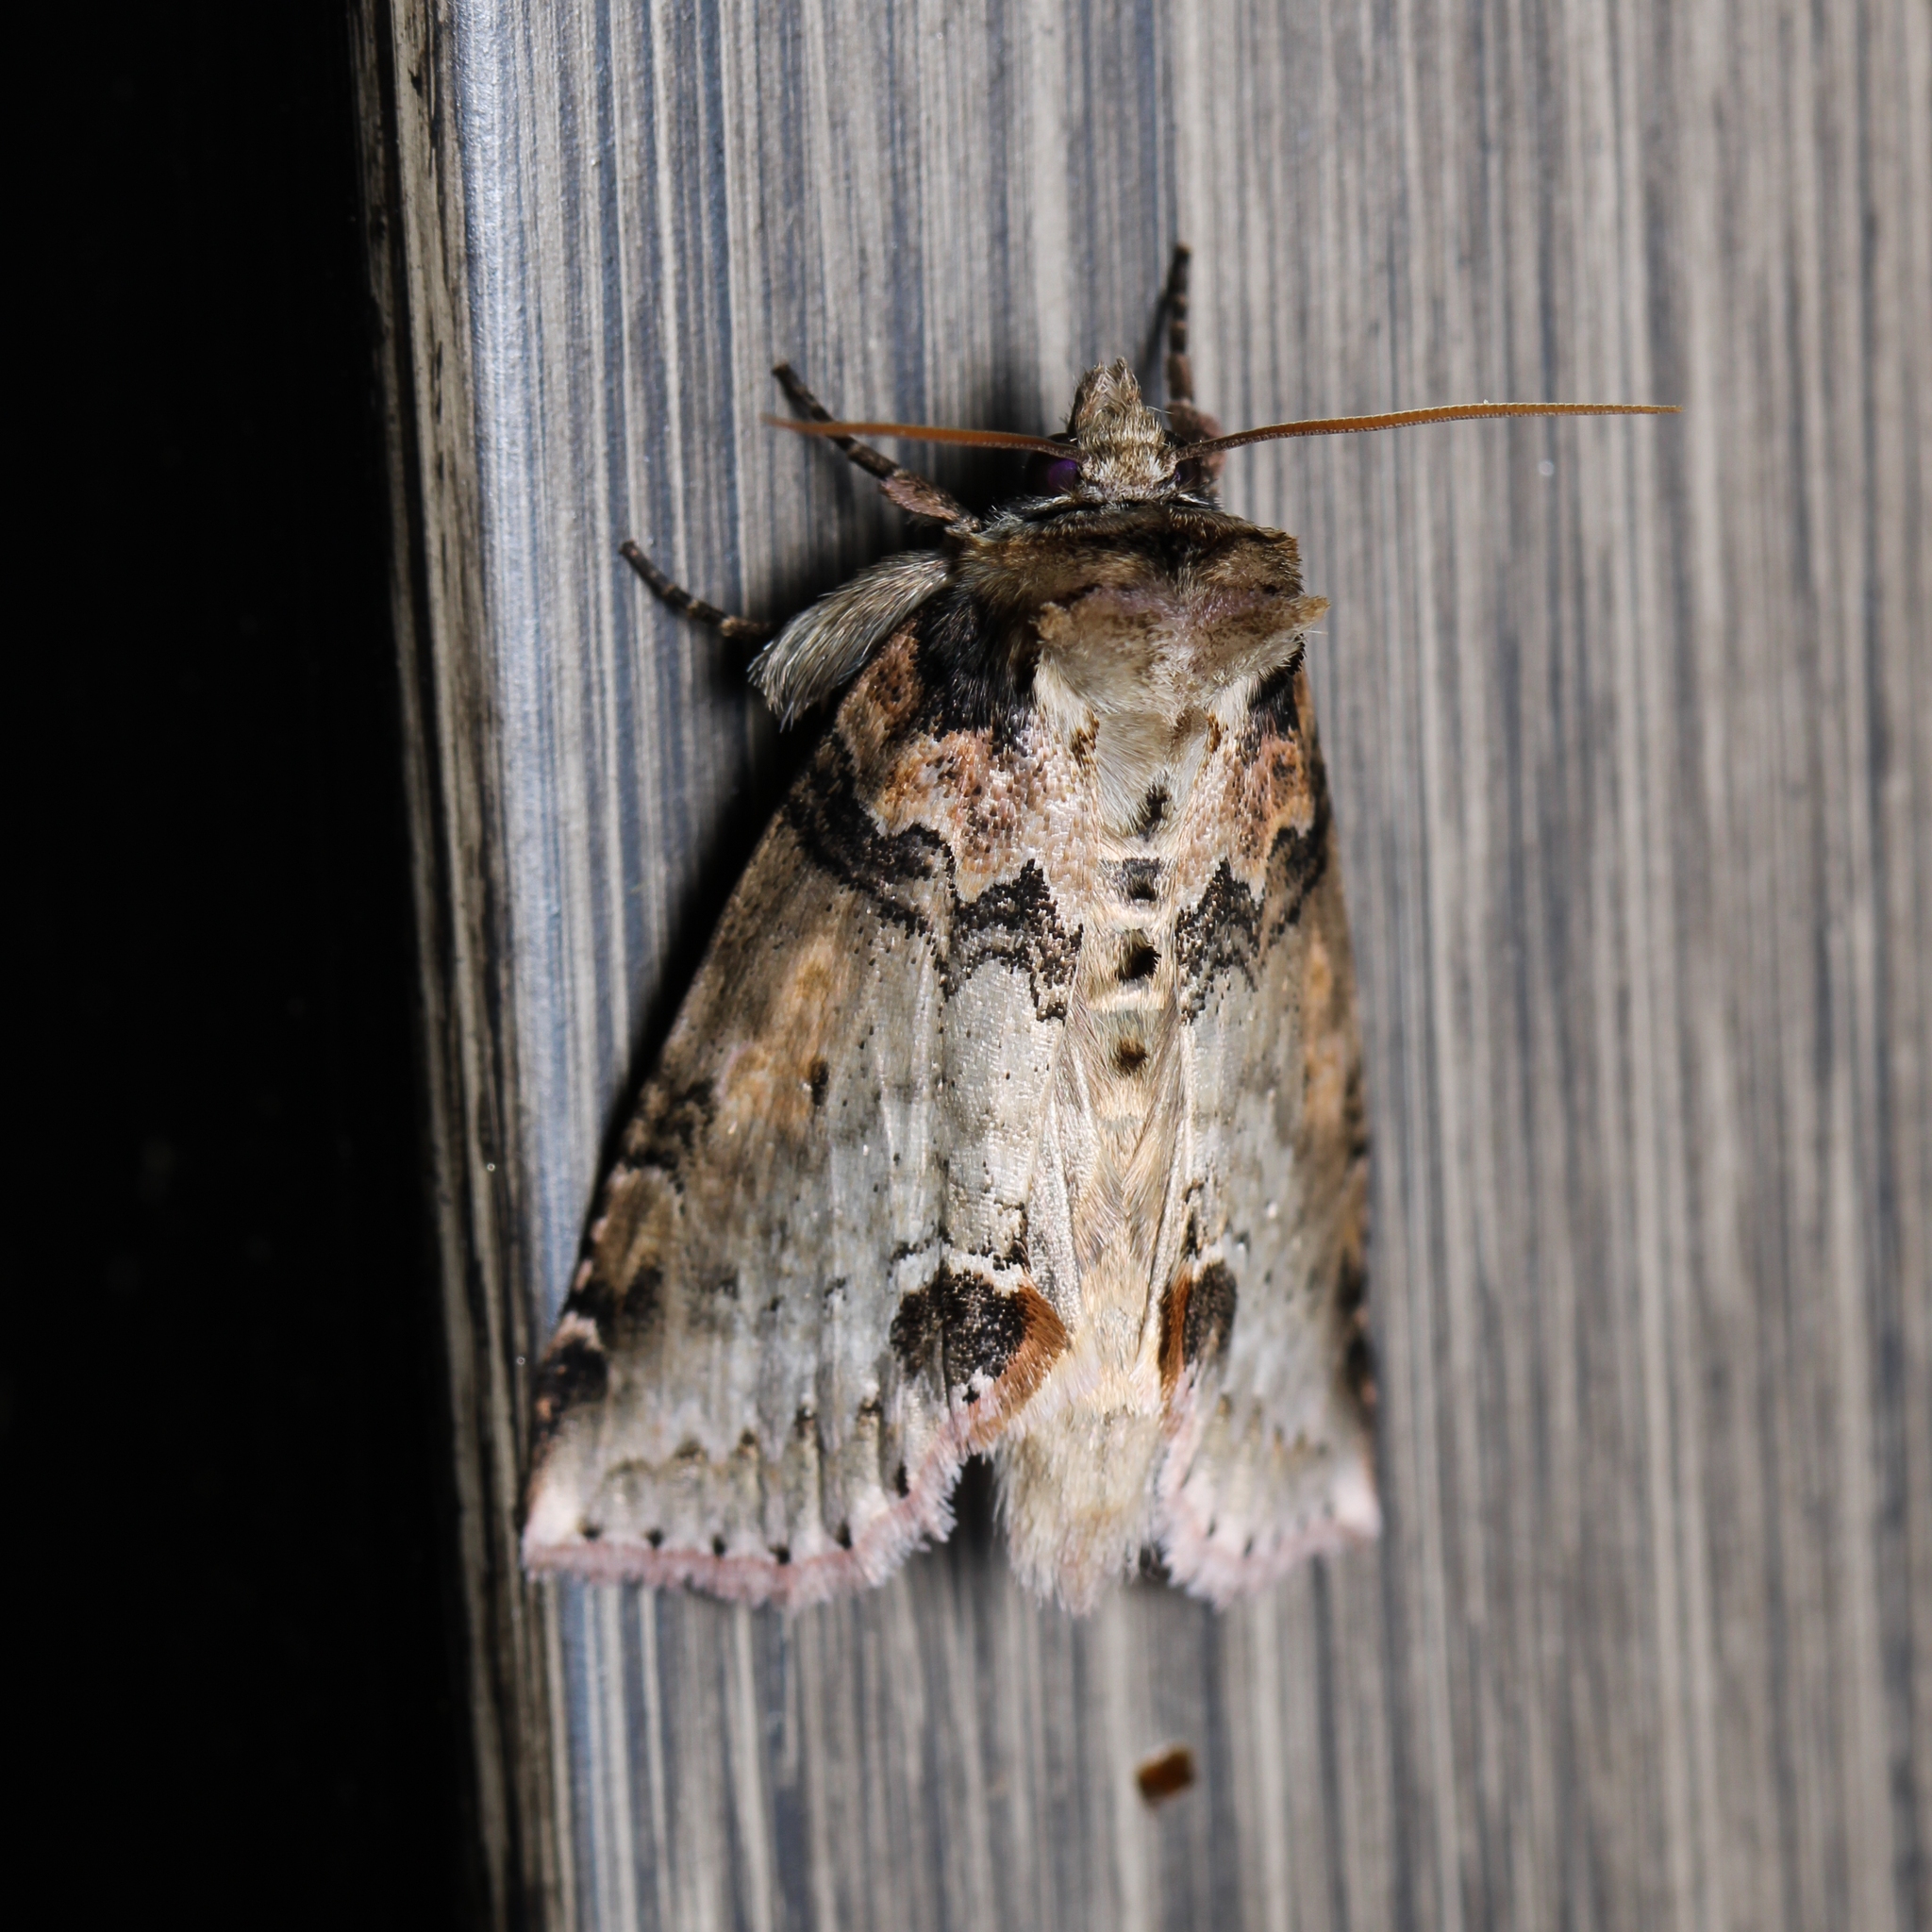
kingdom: Animalia
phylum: Arthropoda
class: Insecta
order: Lepidoptera
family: Drepanidae
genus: Pseudothyatira
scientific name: Pseudothyatira cymatophoroides
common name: Tufted thyatirid moth
